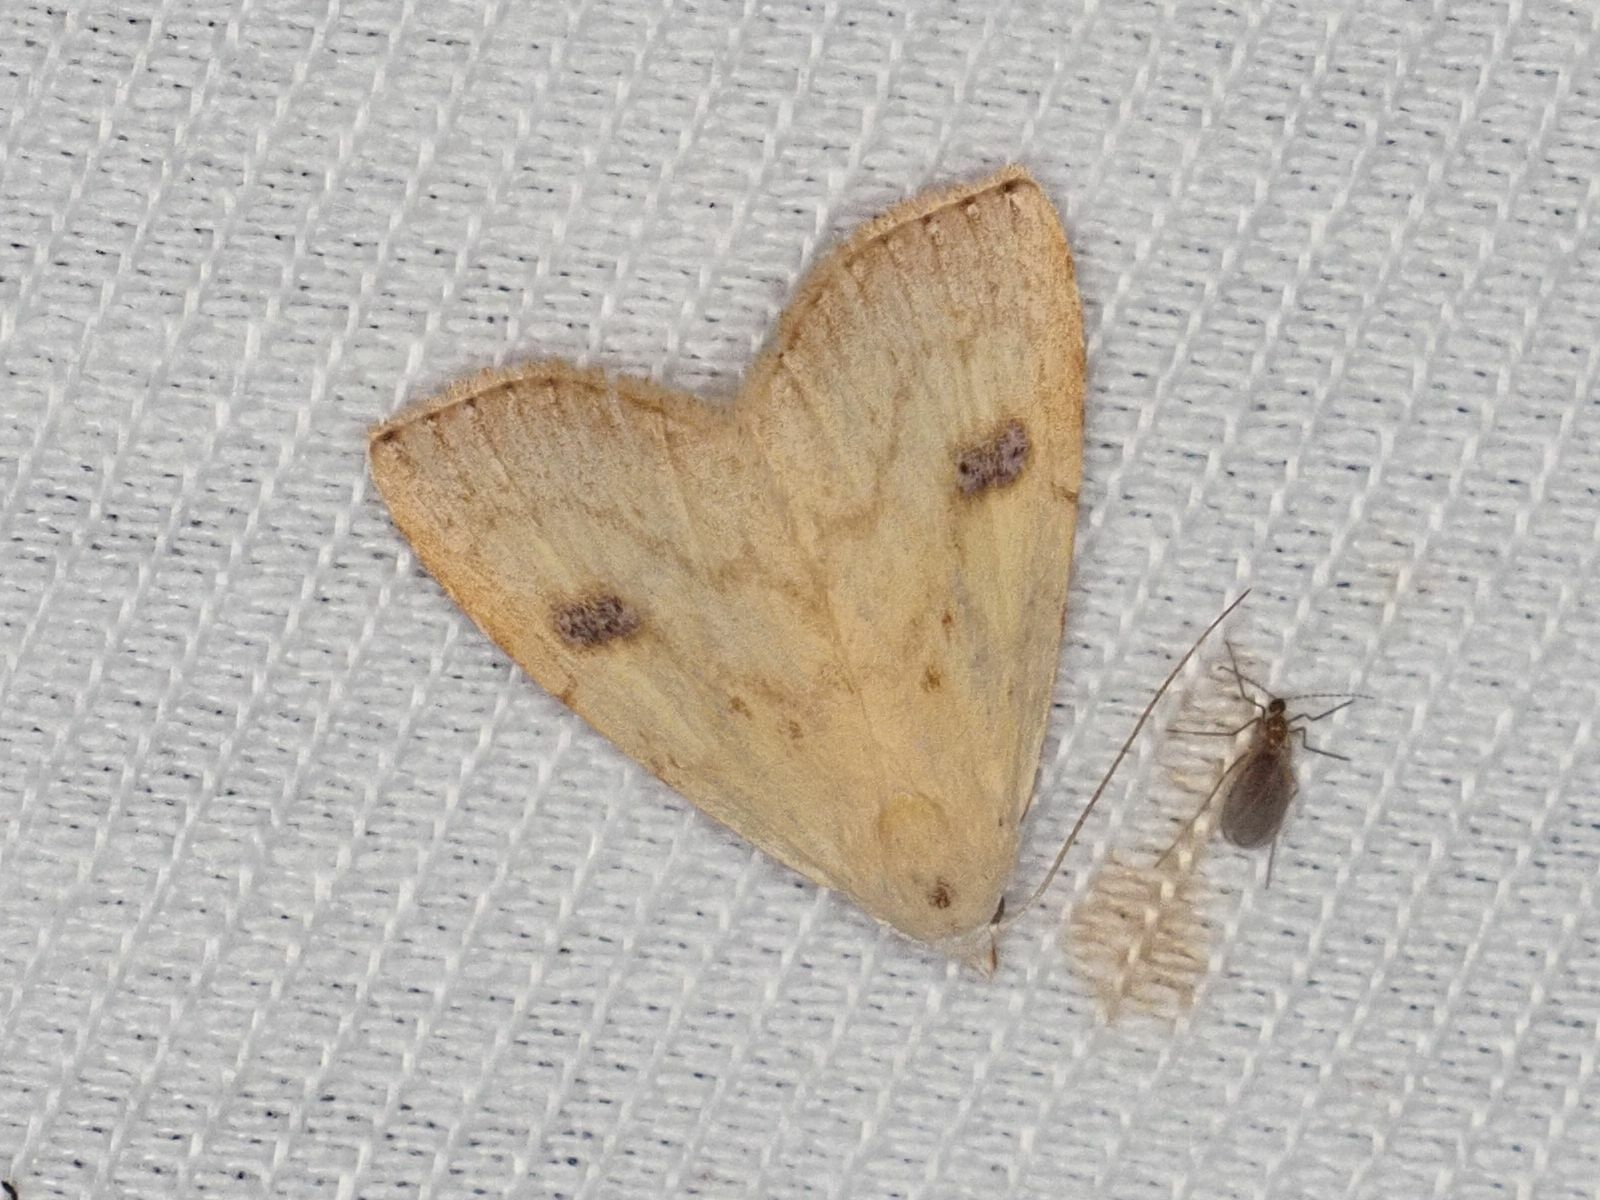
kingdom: Animalia
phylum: Arthropoda
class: Insecta
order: Lepidoptera
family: Erebidae
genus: Rivula
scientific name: Rivula sericealis
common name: Straw dot
